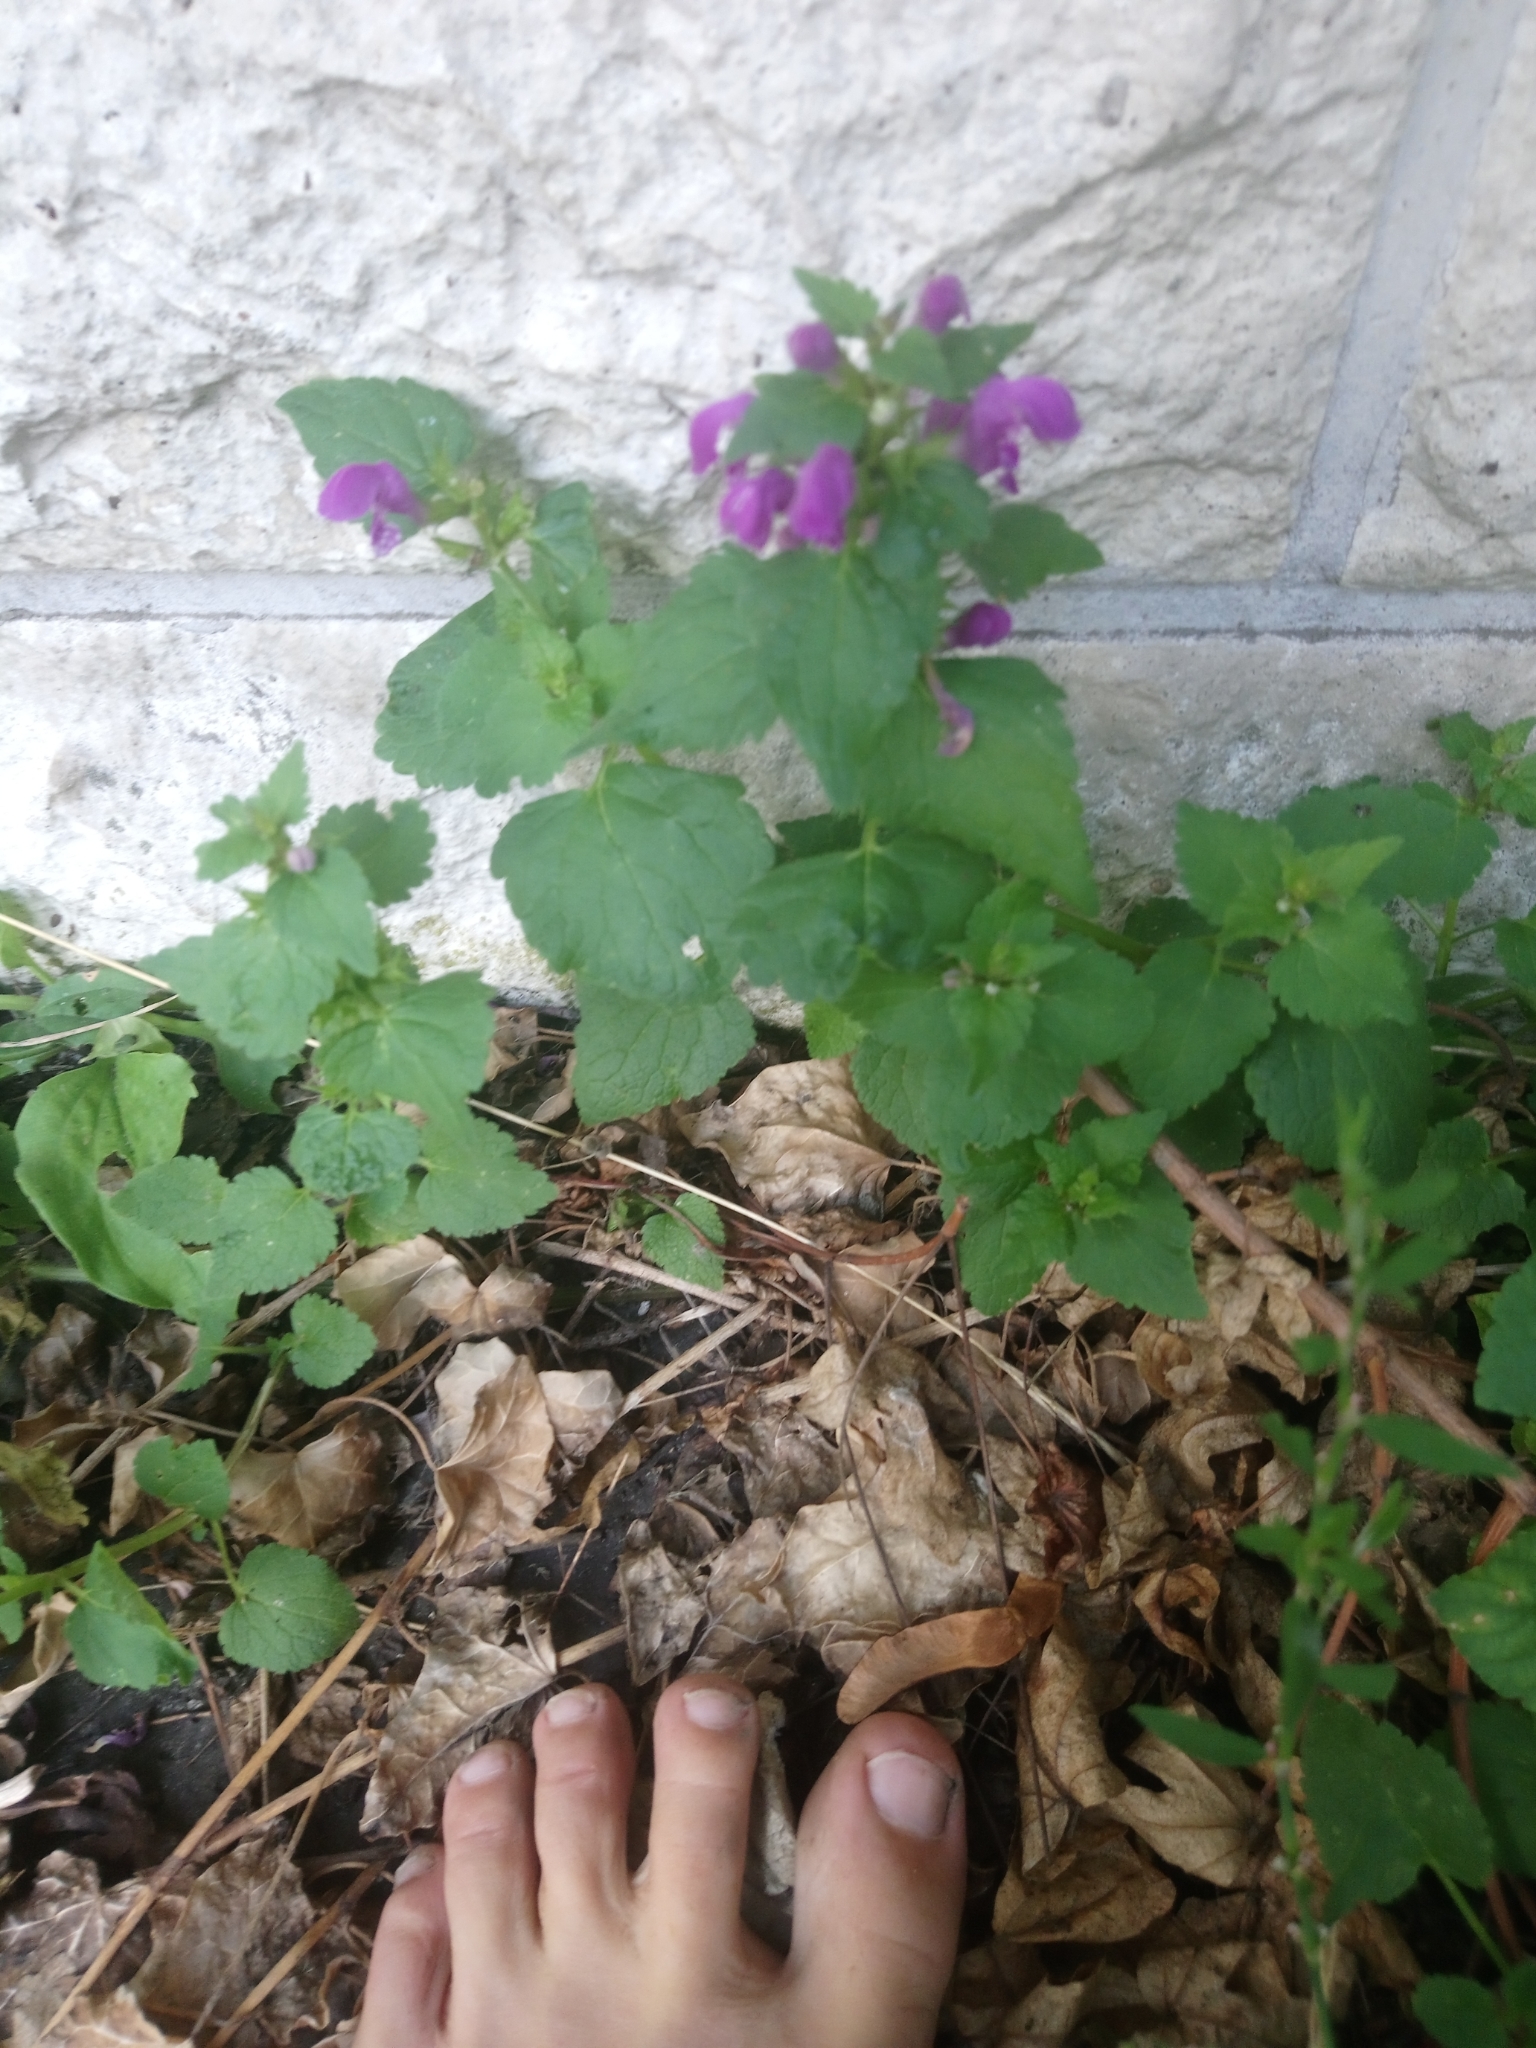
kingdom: Plantae
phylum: Tracheophyta
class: Magnoliopsida
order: Lamiales
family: Lamiaceae
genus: Lamium
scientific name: Lamium maculatum
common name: Spotted dead-nettle
